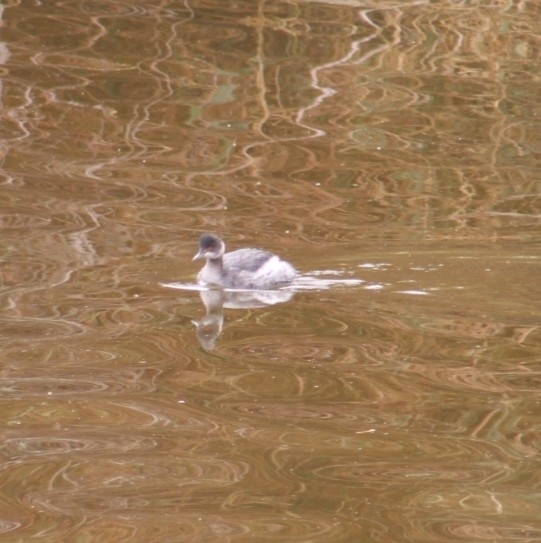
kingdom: Animalia
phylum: Chordata
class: Aves
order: Podicipediformes
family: Podicipedidae
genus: Podiceps
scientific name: Podiceps nigricollis
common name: Black-necked grebe
